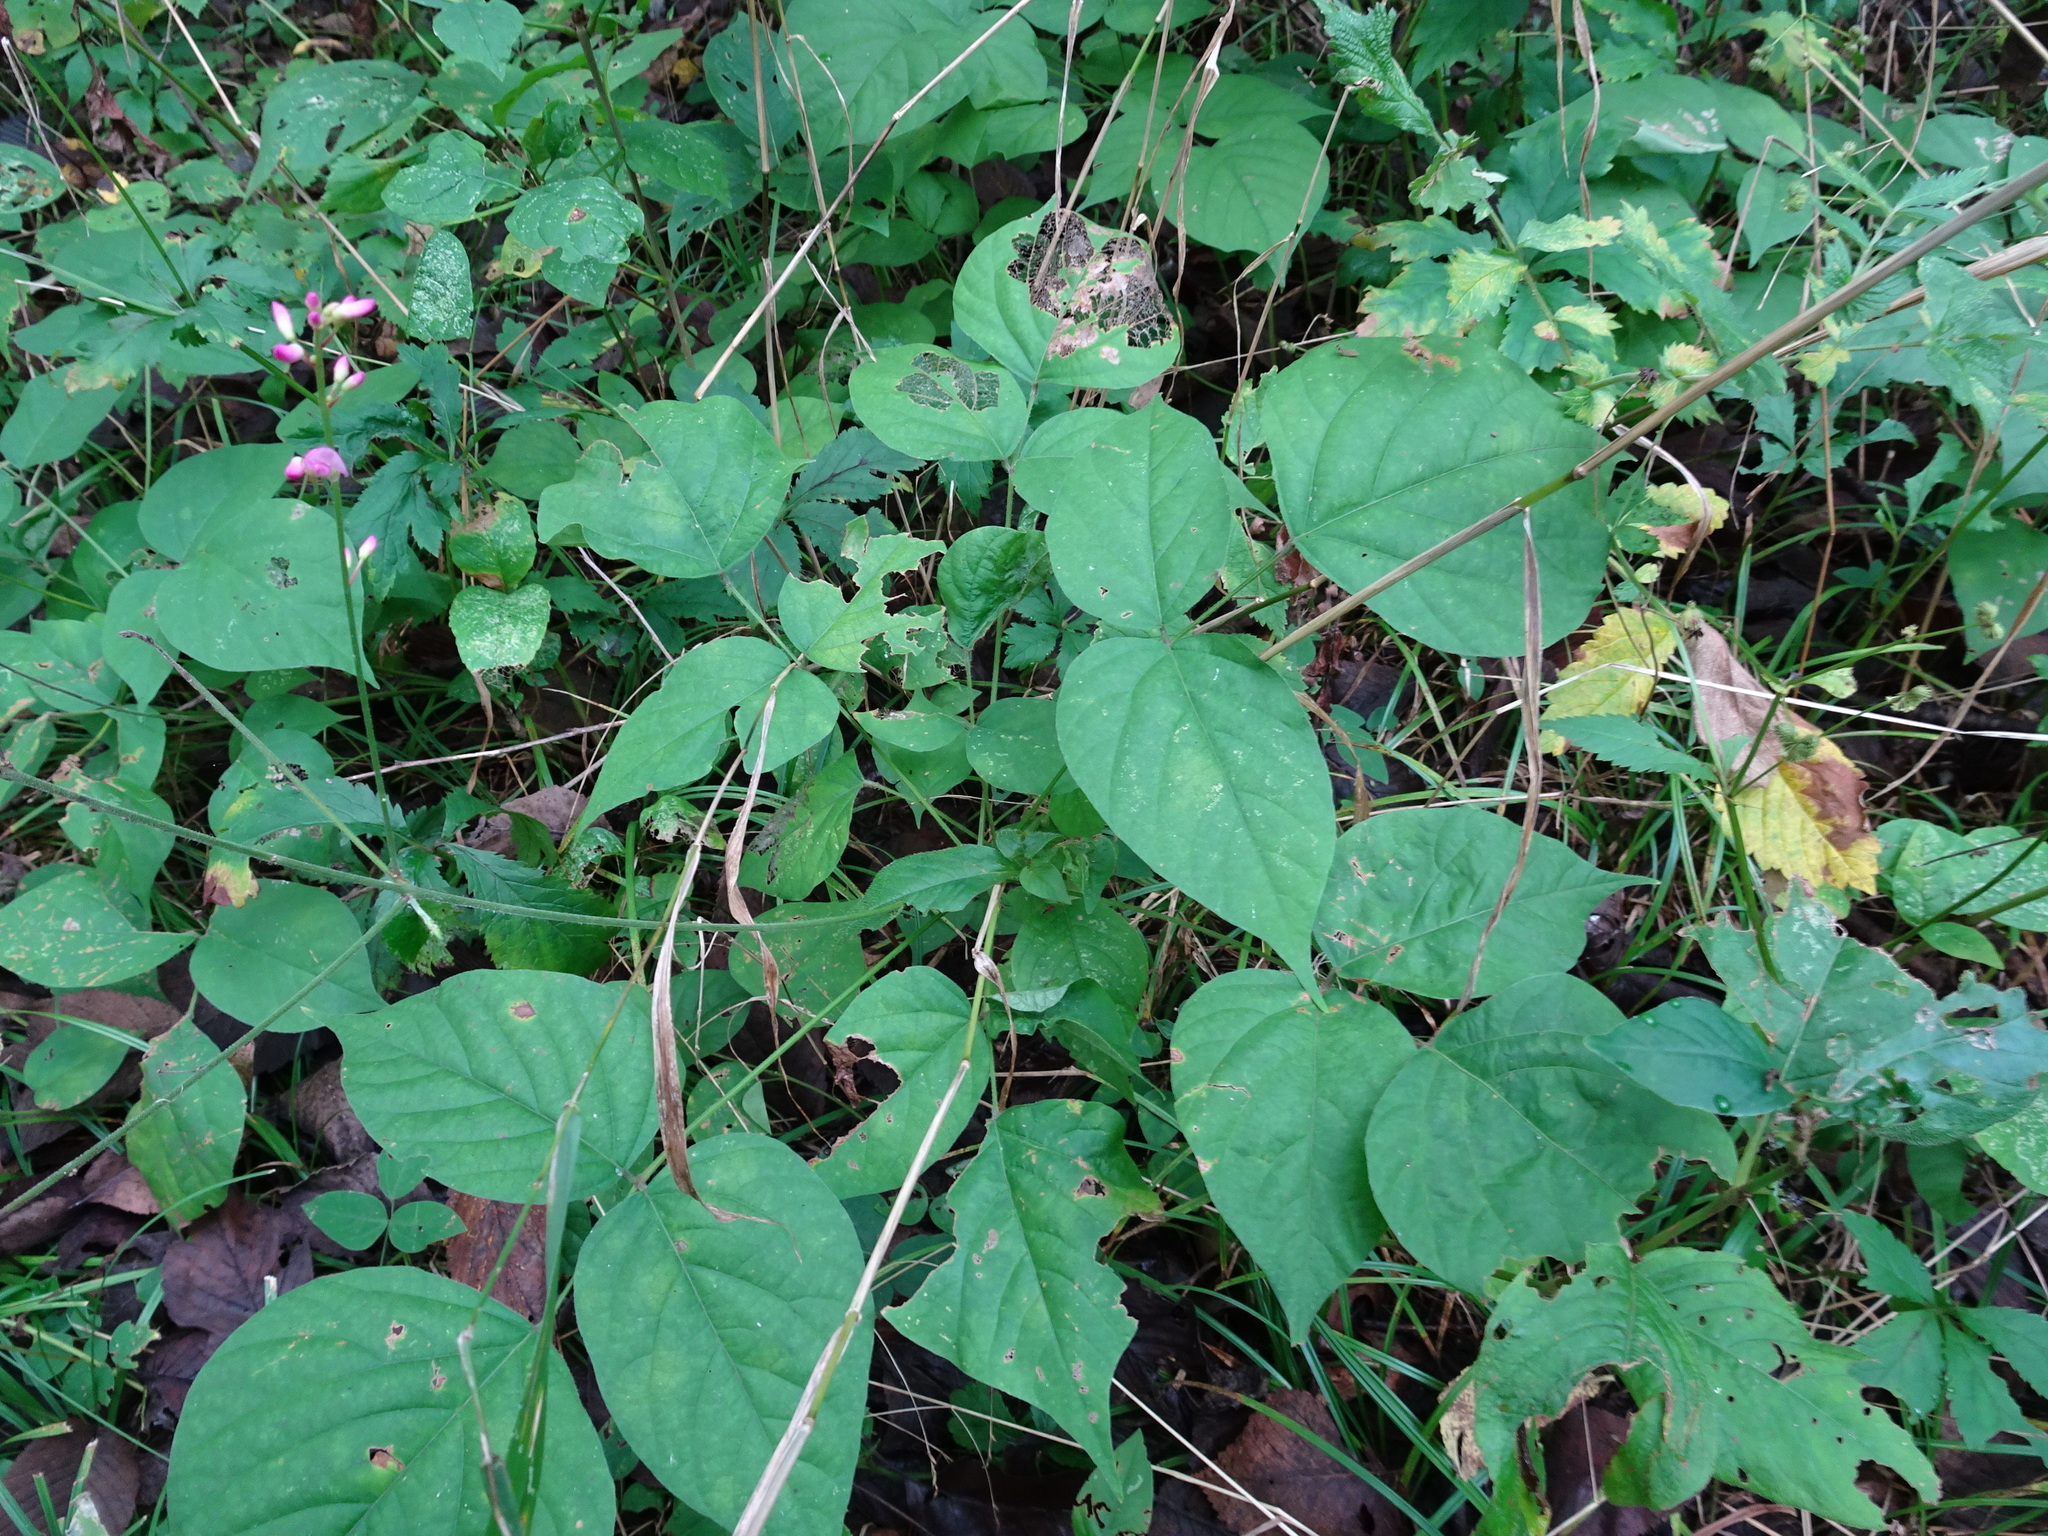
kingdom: Plantae
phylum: Tracheophyta
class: Magnoliopsida
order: Fabales
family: Fabaceae
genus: Hylodesmum
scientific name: Hylodesmum glutinosum
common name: Clustered-leaved tick-trefoil
